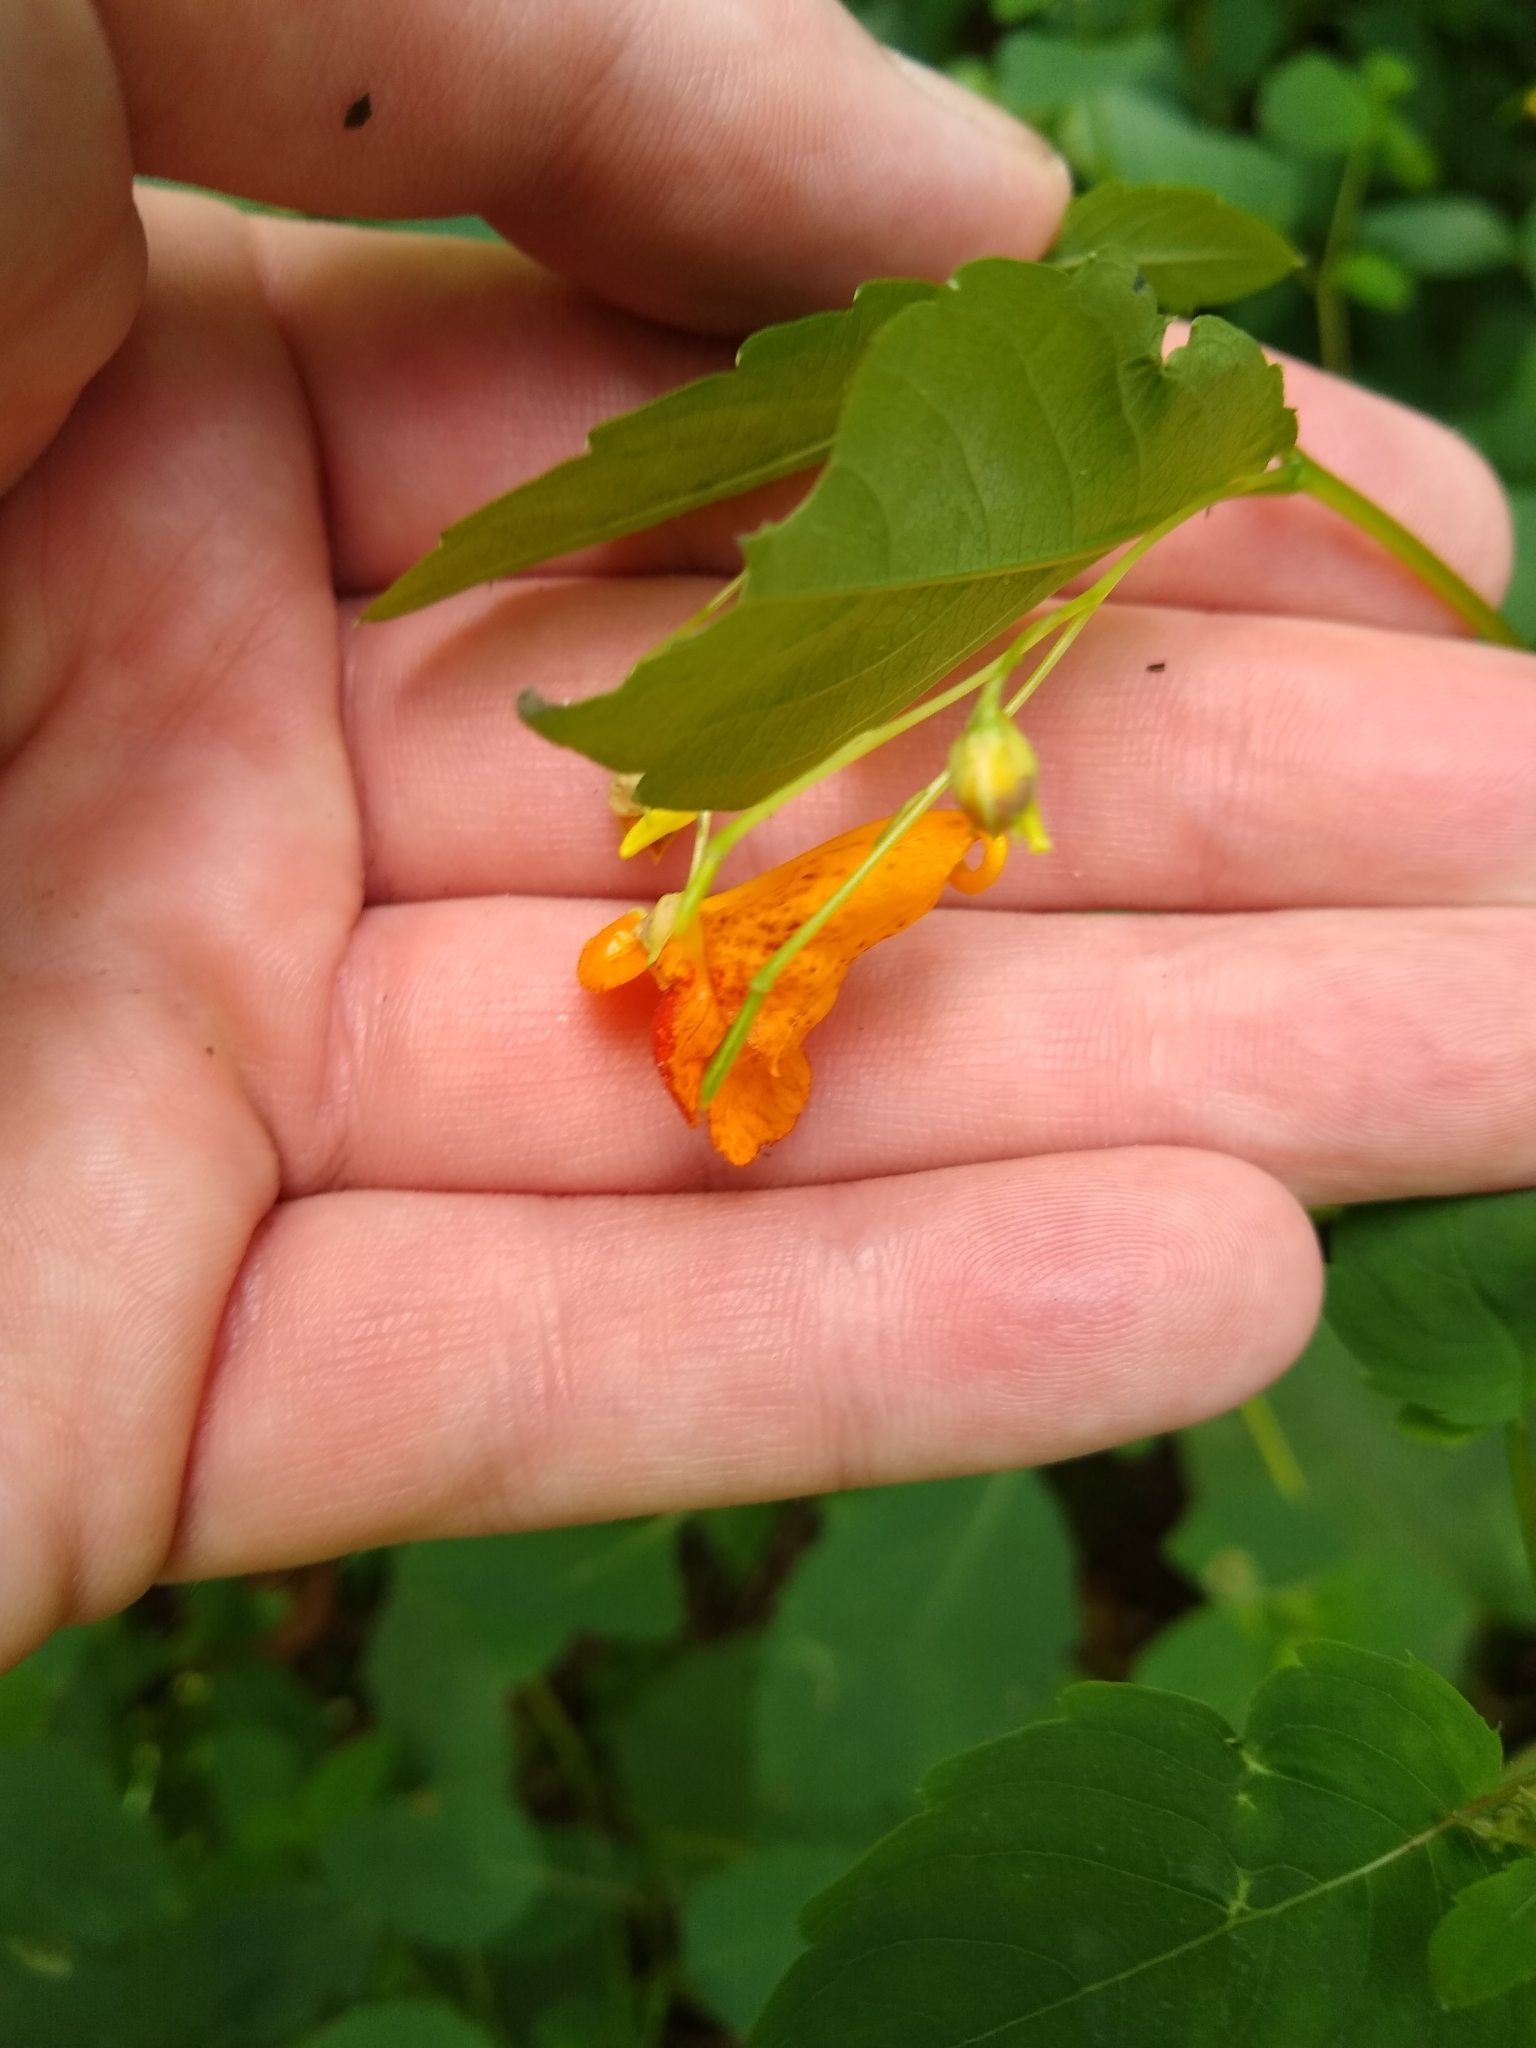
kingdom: Plantae
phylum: Tracheophyta
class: Magnoliopsida
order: Ericales
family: Balsaminaceae
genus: Impatiens
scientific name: Impatiens capensis
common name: Orange balsam
